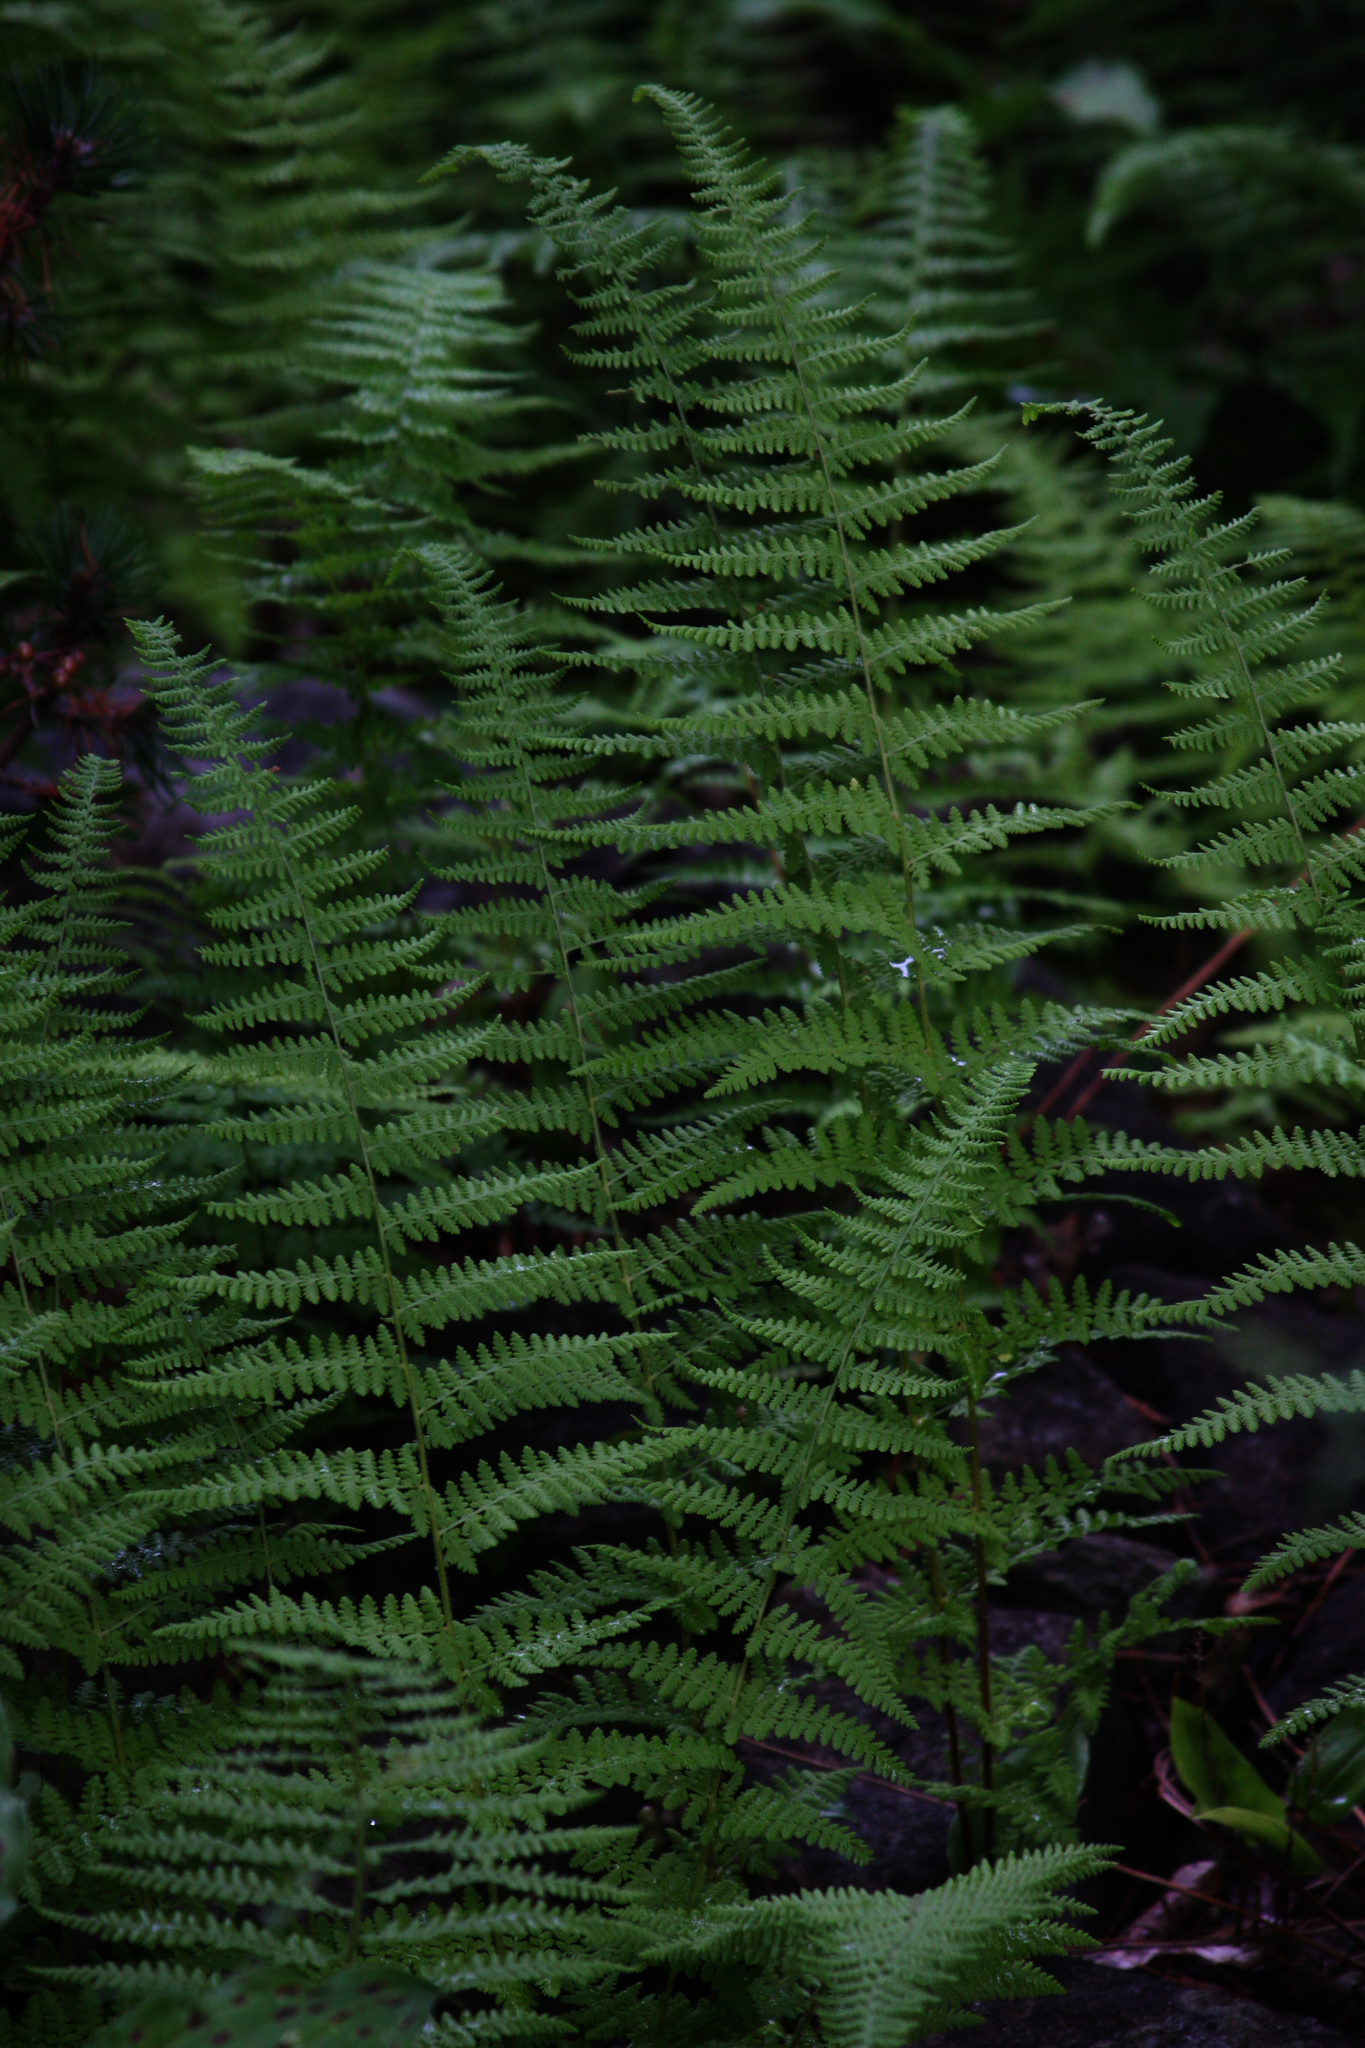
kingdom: Plantae
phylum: Tracheophyta
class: Polypodiopsida
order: Polypodiales
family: Dennstaedtiaceae
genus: Sitobolium
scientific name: Sitobolium punctilobum
